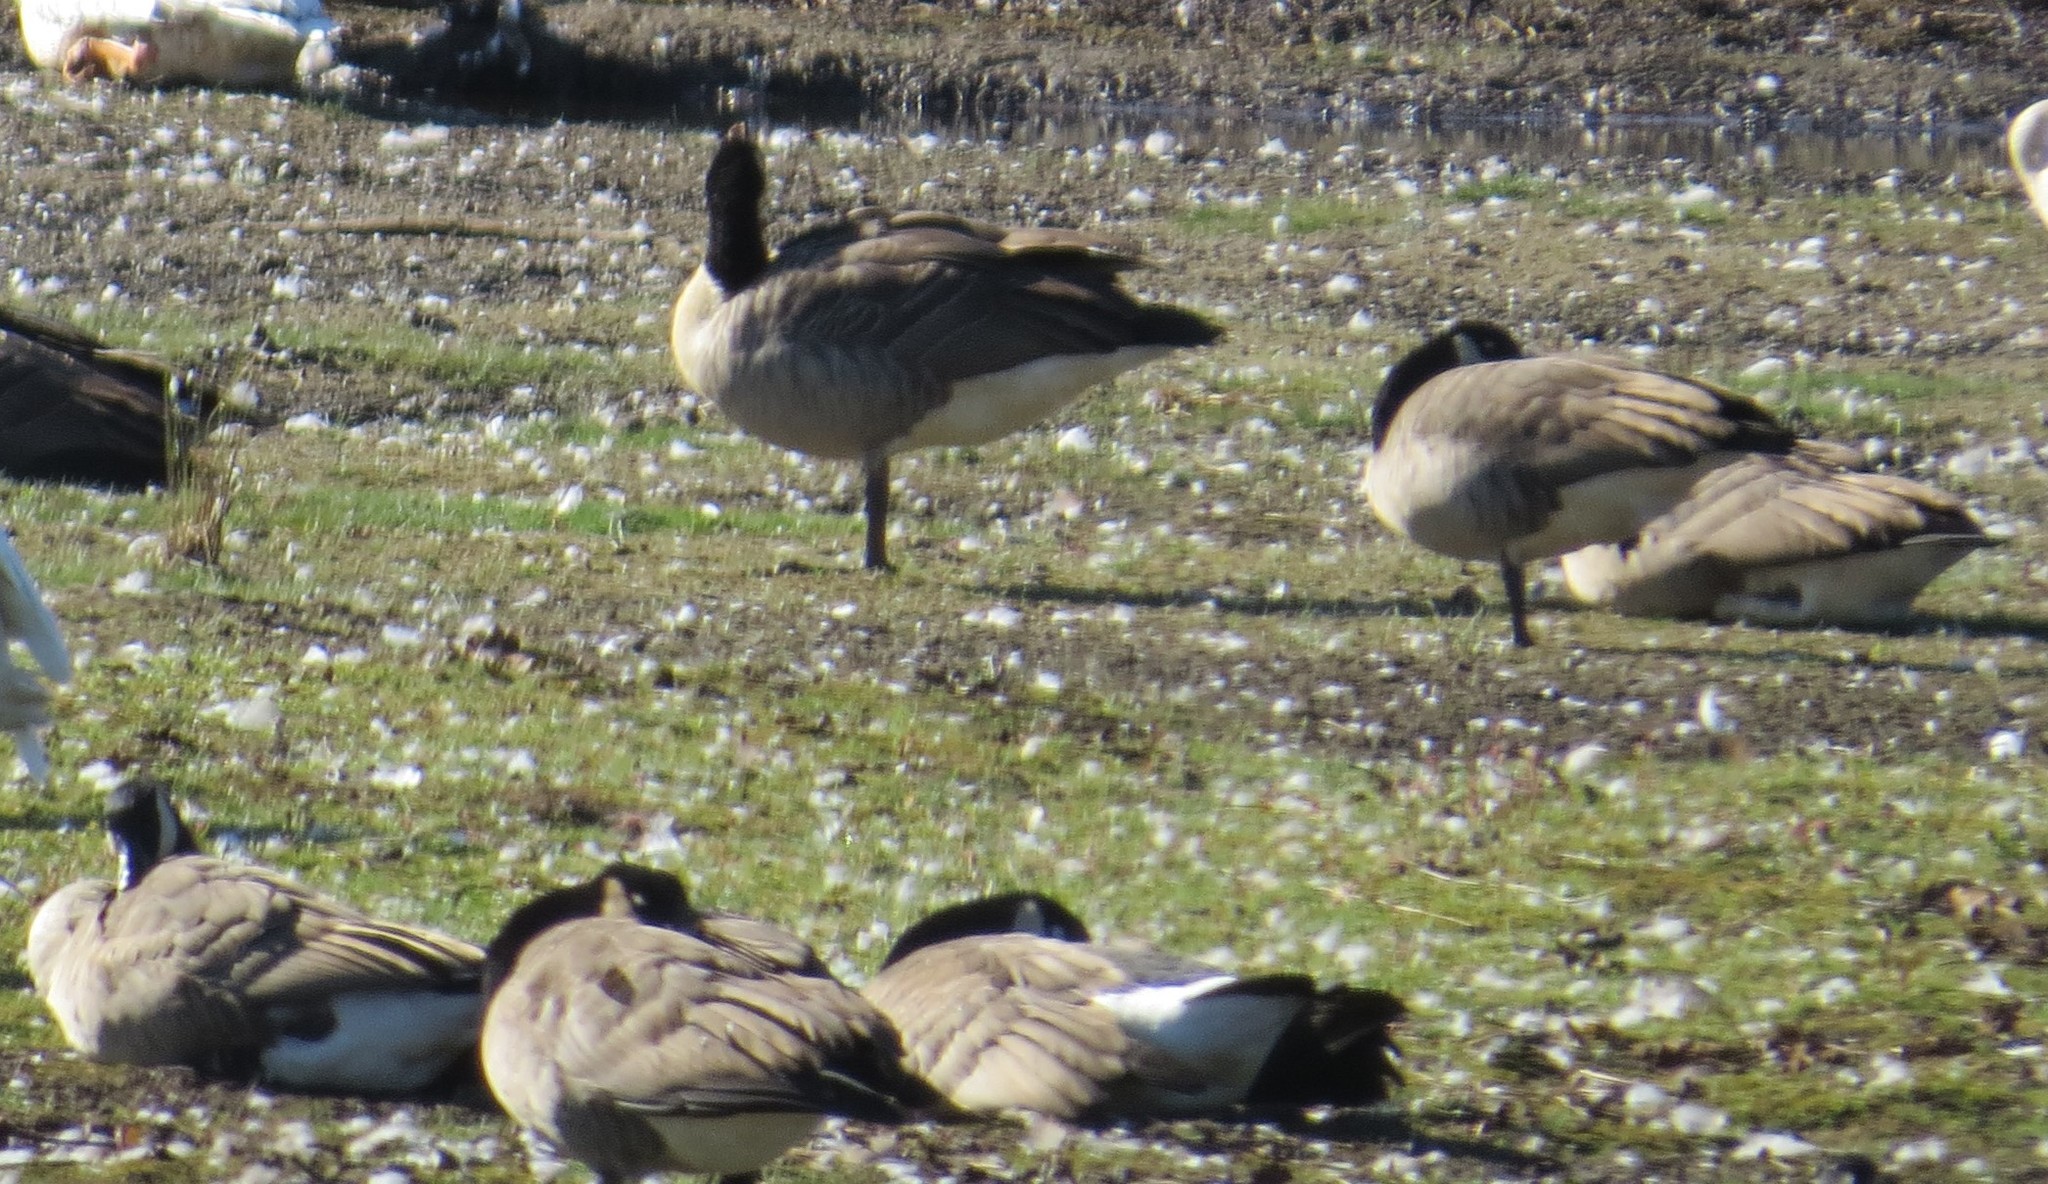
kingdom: Animalia
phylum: Chordata
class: Aves
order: Anseriformes
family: Anatidae
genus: Branta
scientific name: Branta canadensis
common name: Canada goose
